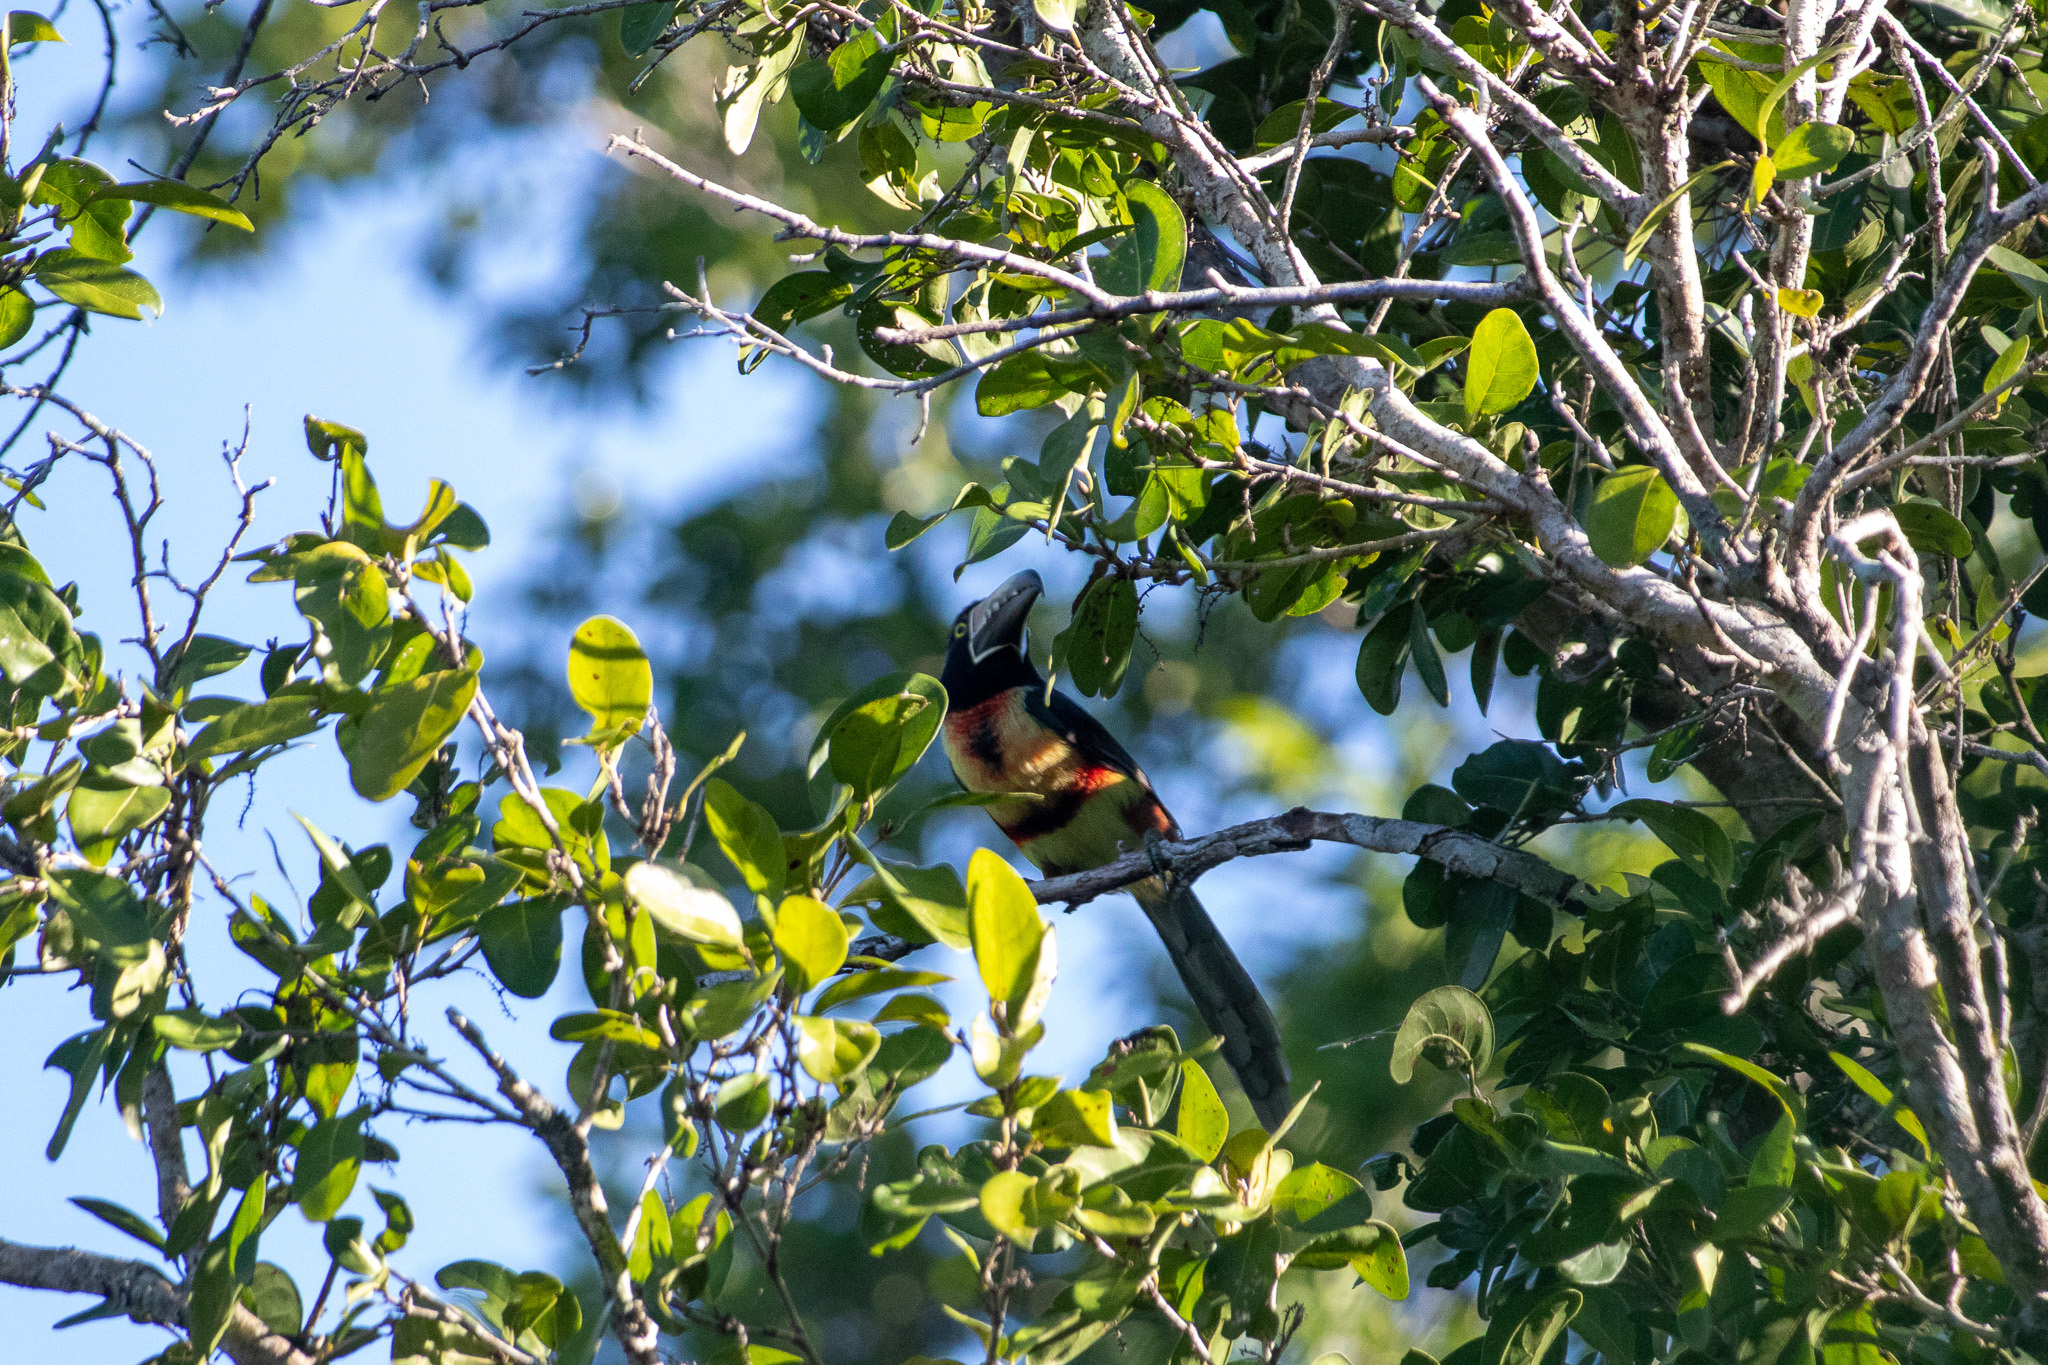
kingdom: Animalia
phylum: Chordata
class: Aves
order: Piciformes
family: Ramphastidae
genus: Pteroglossus
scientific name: Pteroglossus torquatus
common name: Collared aracari
